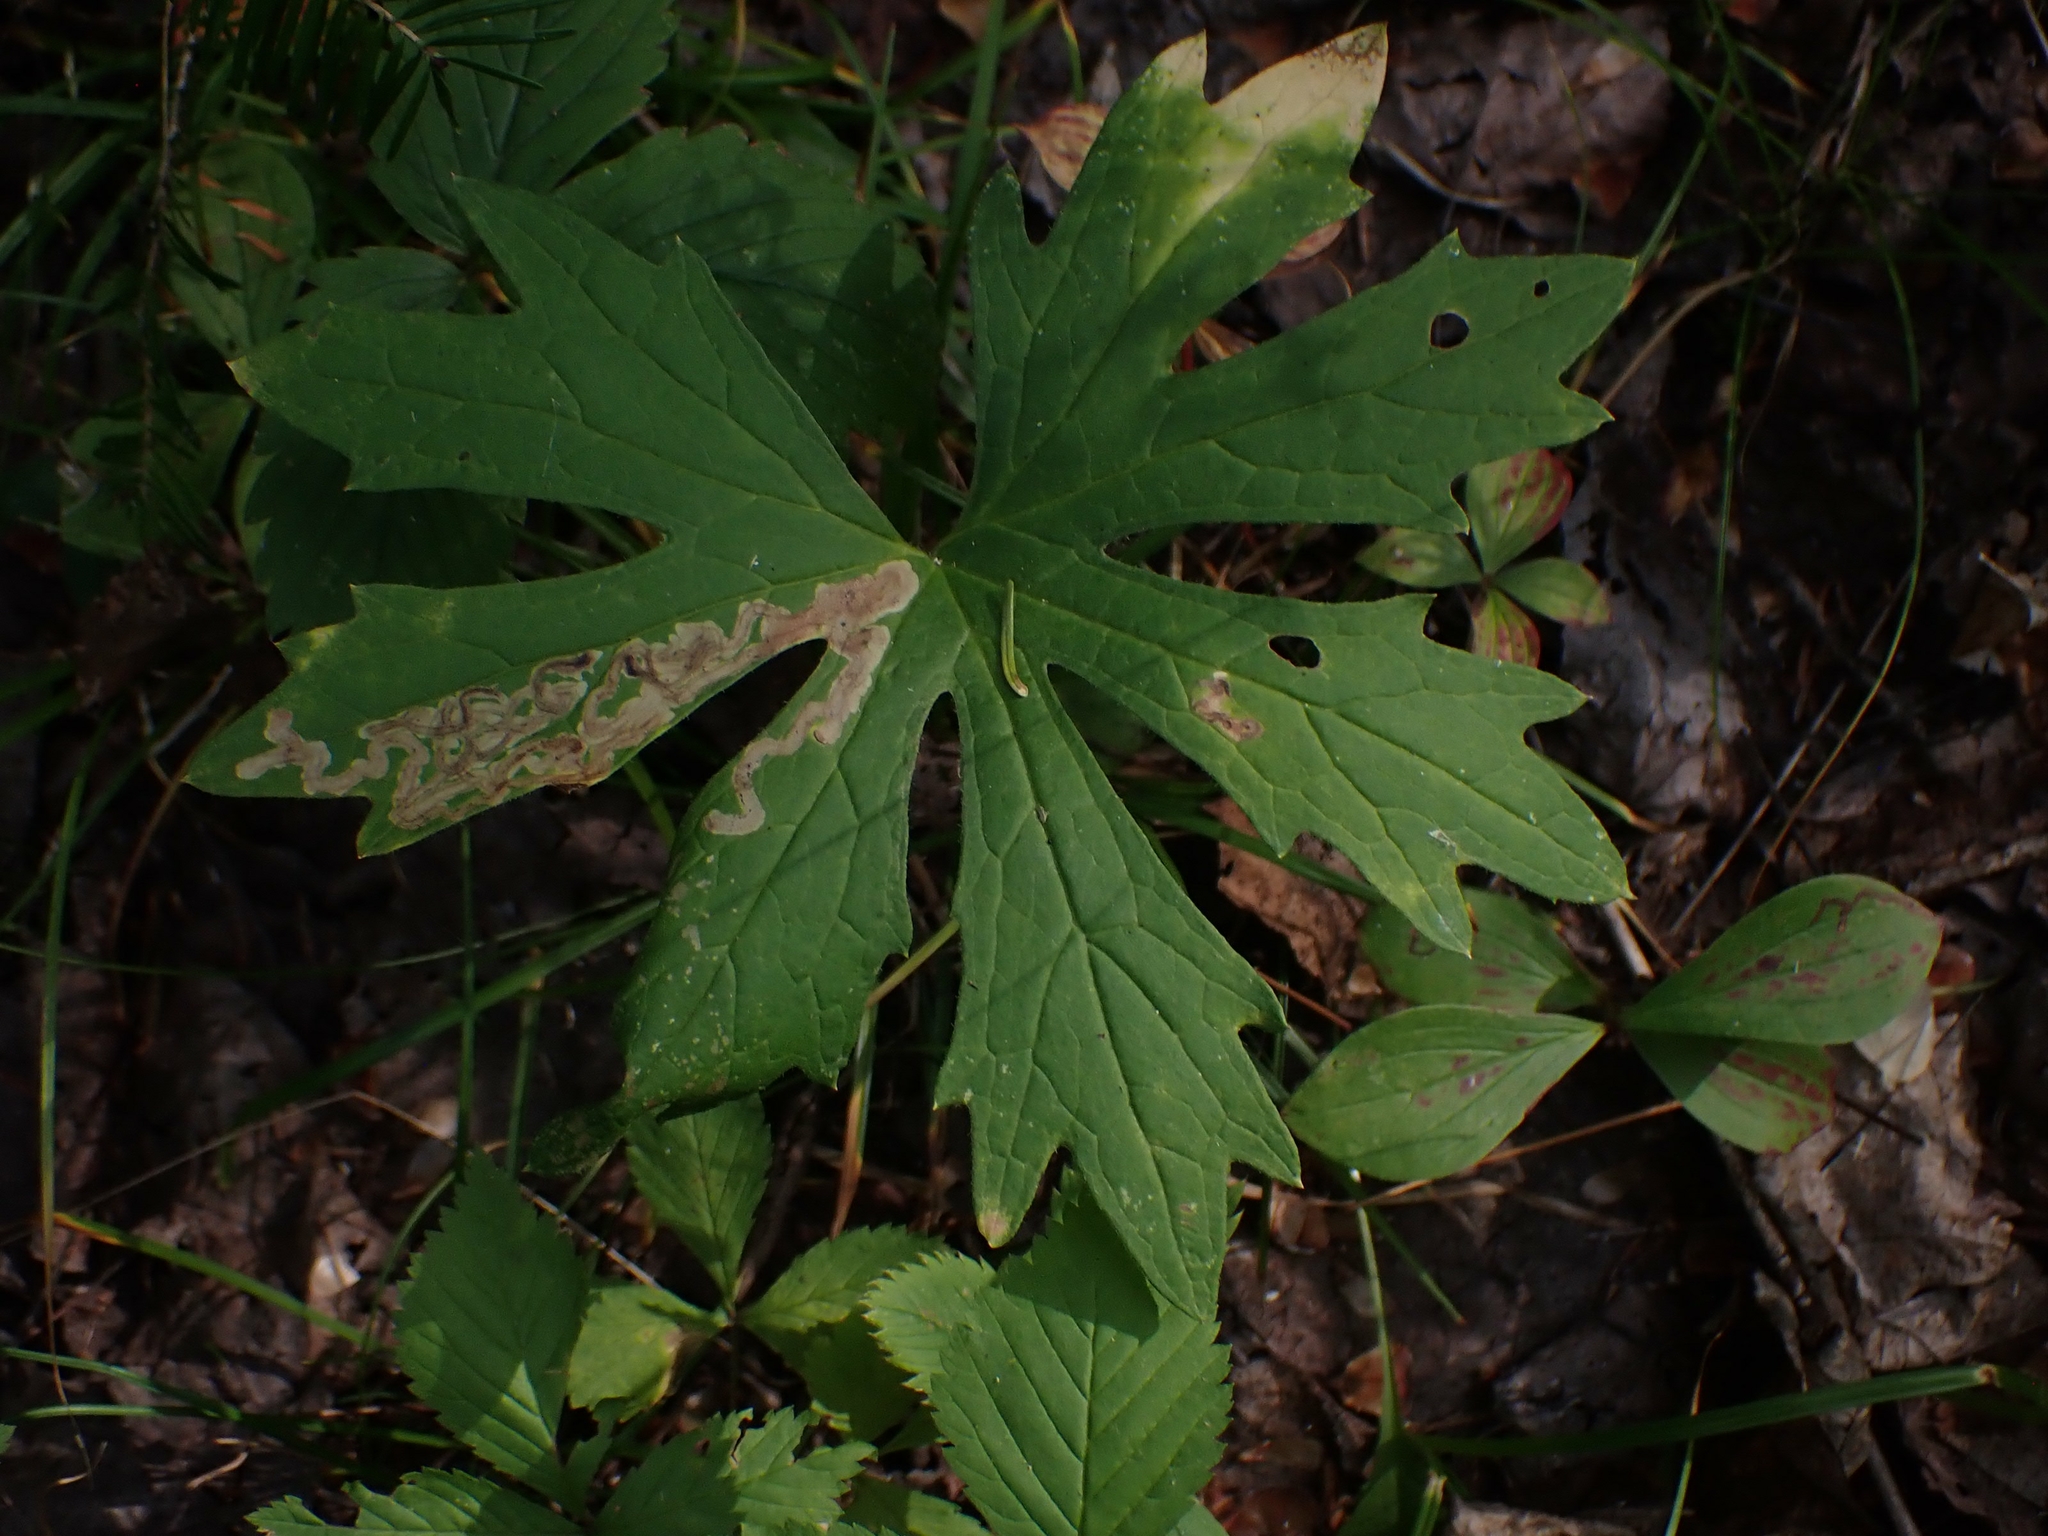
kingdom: Plantae
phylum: Tracheophyta
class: Magnoliopsida
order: Asterales
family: Asteraceae
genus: Petasites
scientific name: Petasites frigidus
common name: Arctic butterbur
